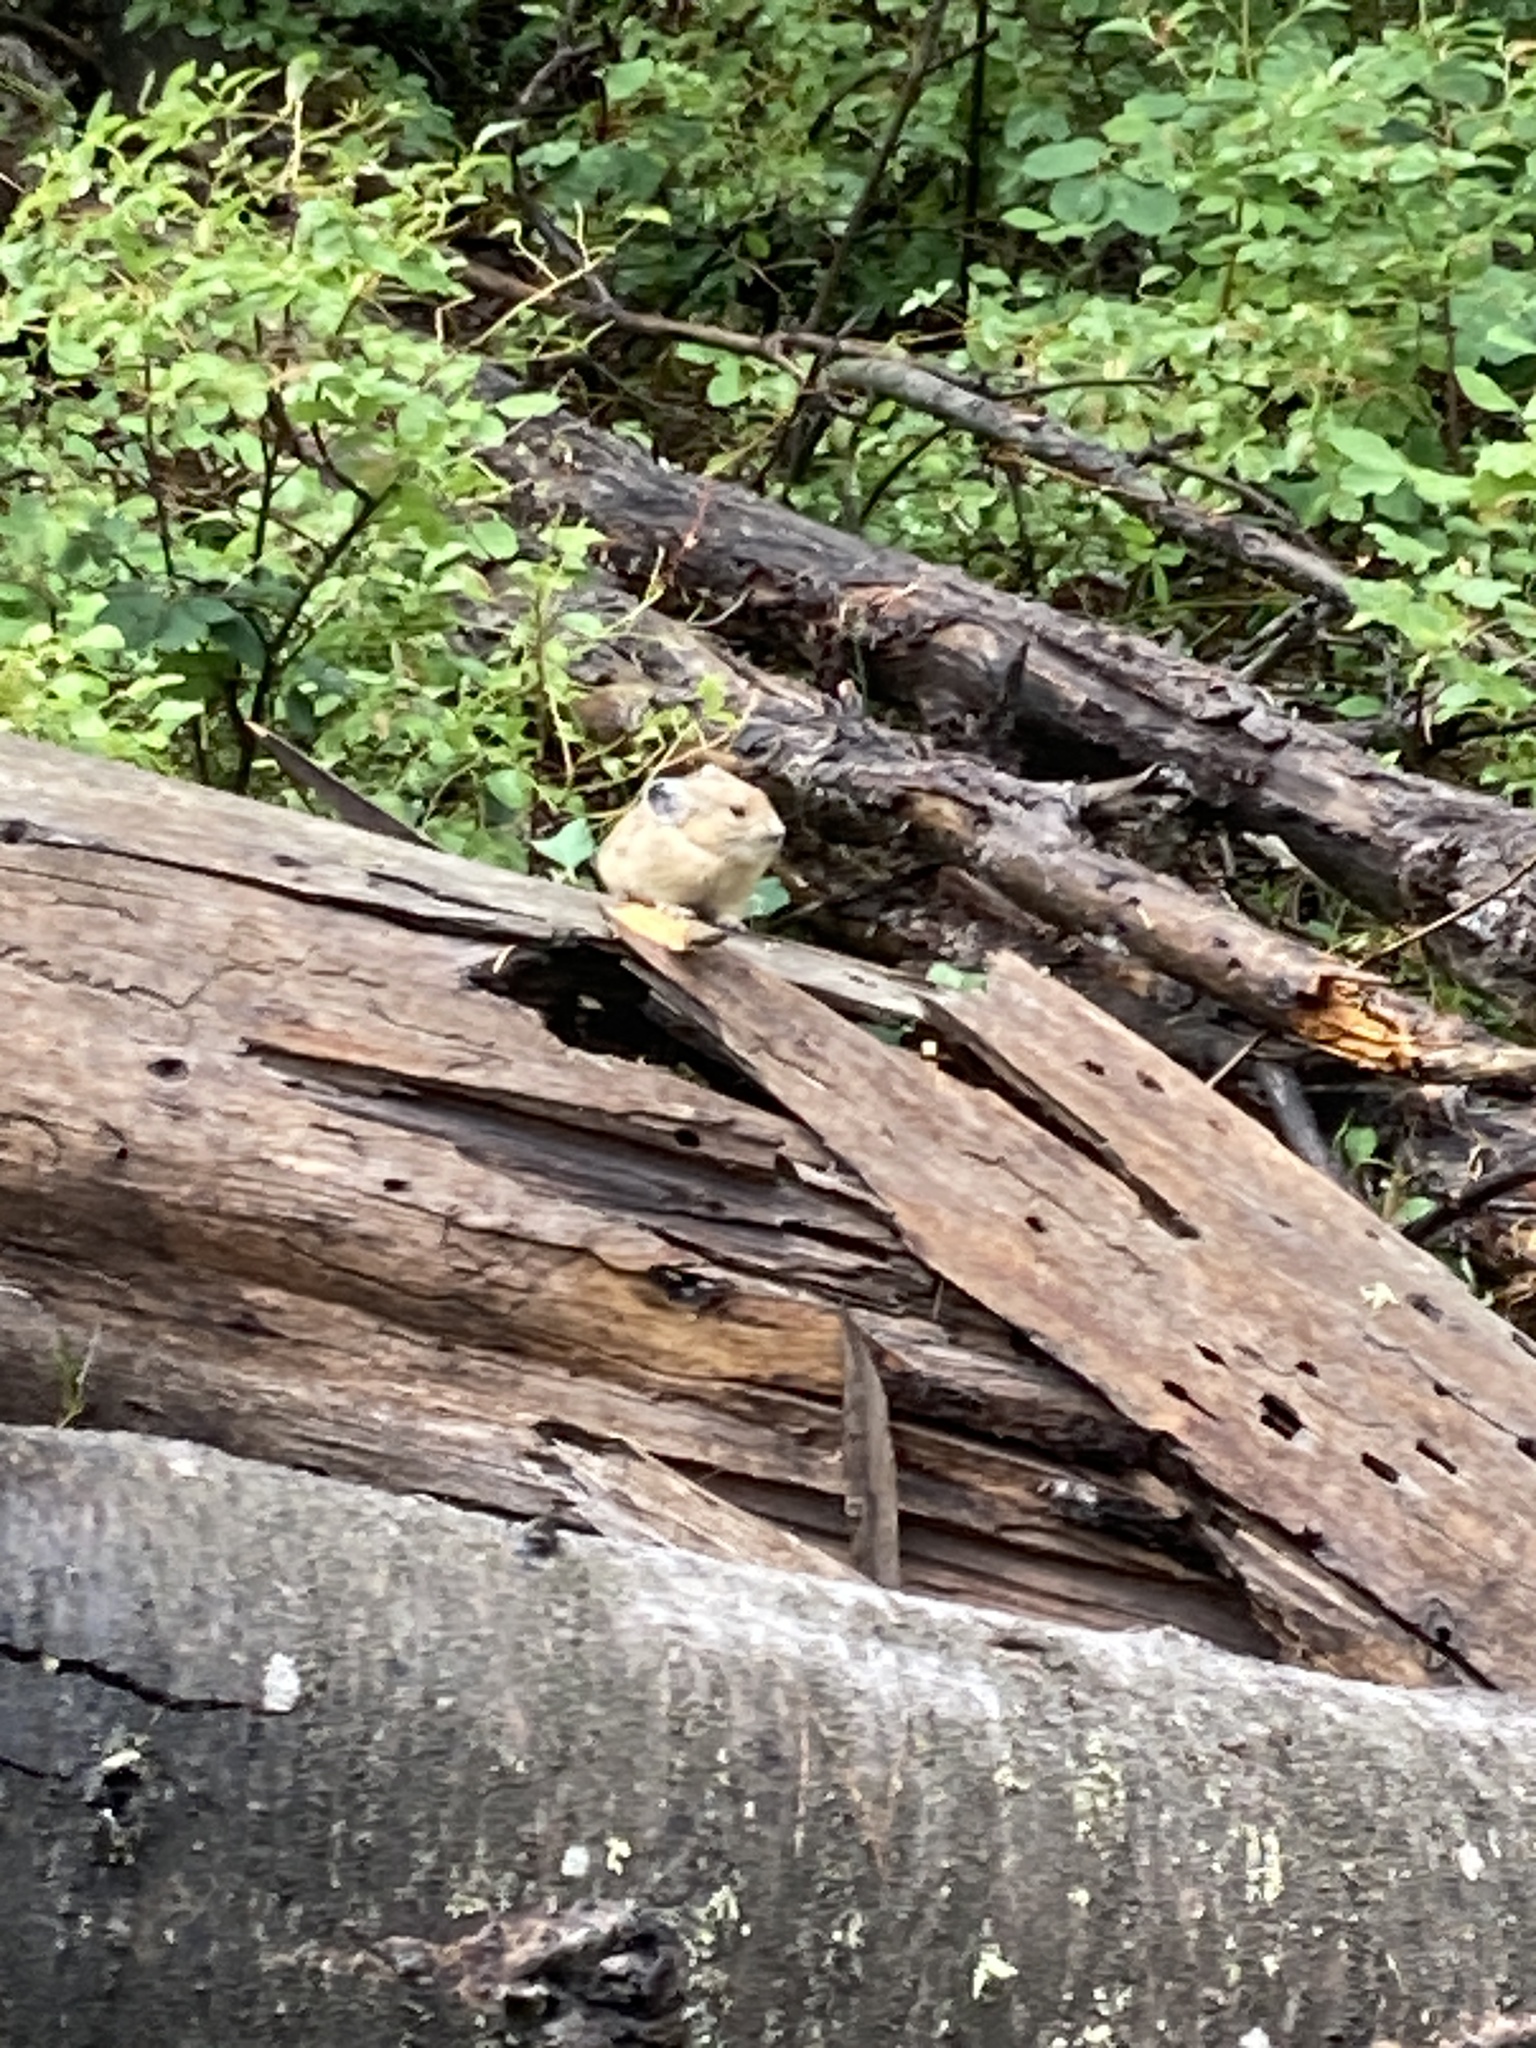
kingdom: Animalia
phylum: Chordata
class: Mammalia
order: Lagomorpha
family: Ochotonidae
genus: Ochotona
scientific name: Ochotona princeps
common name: American pika
